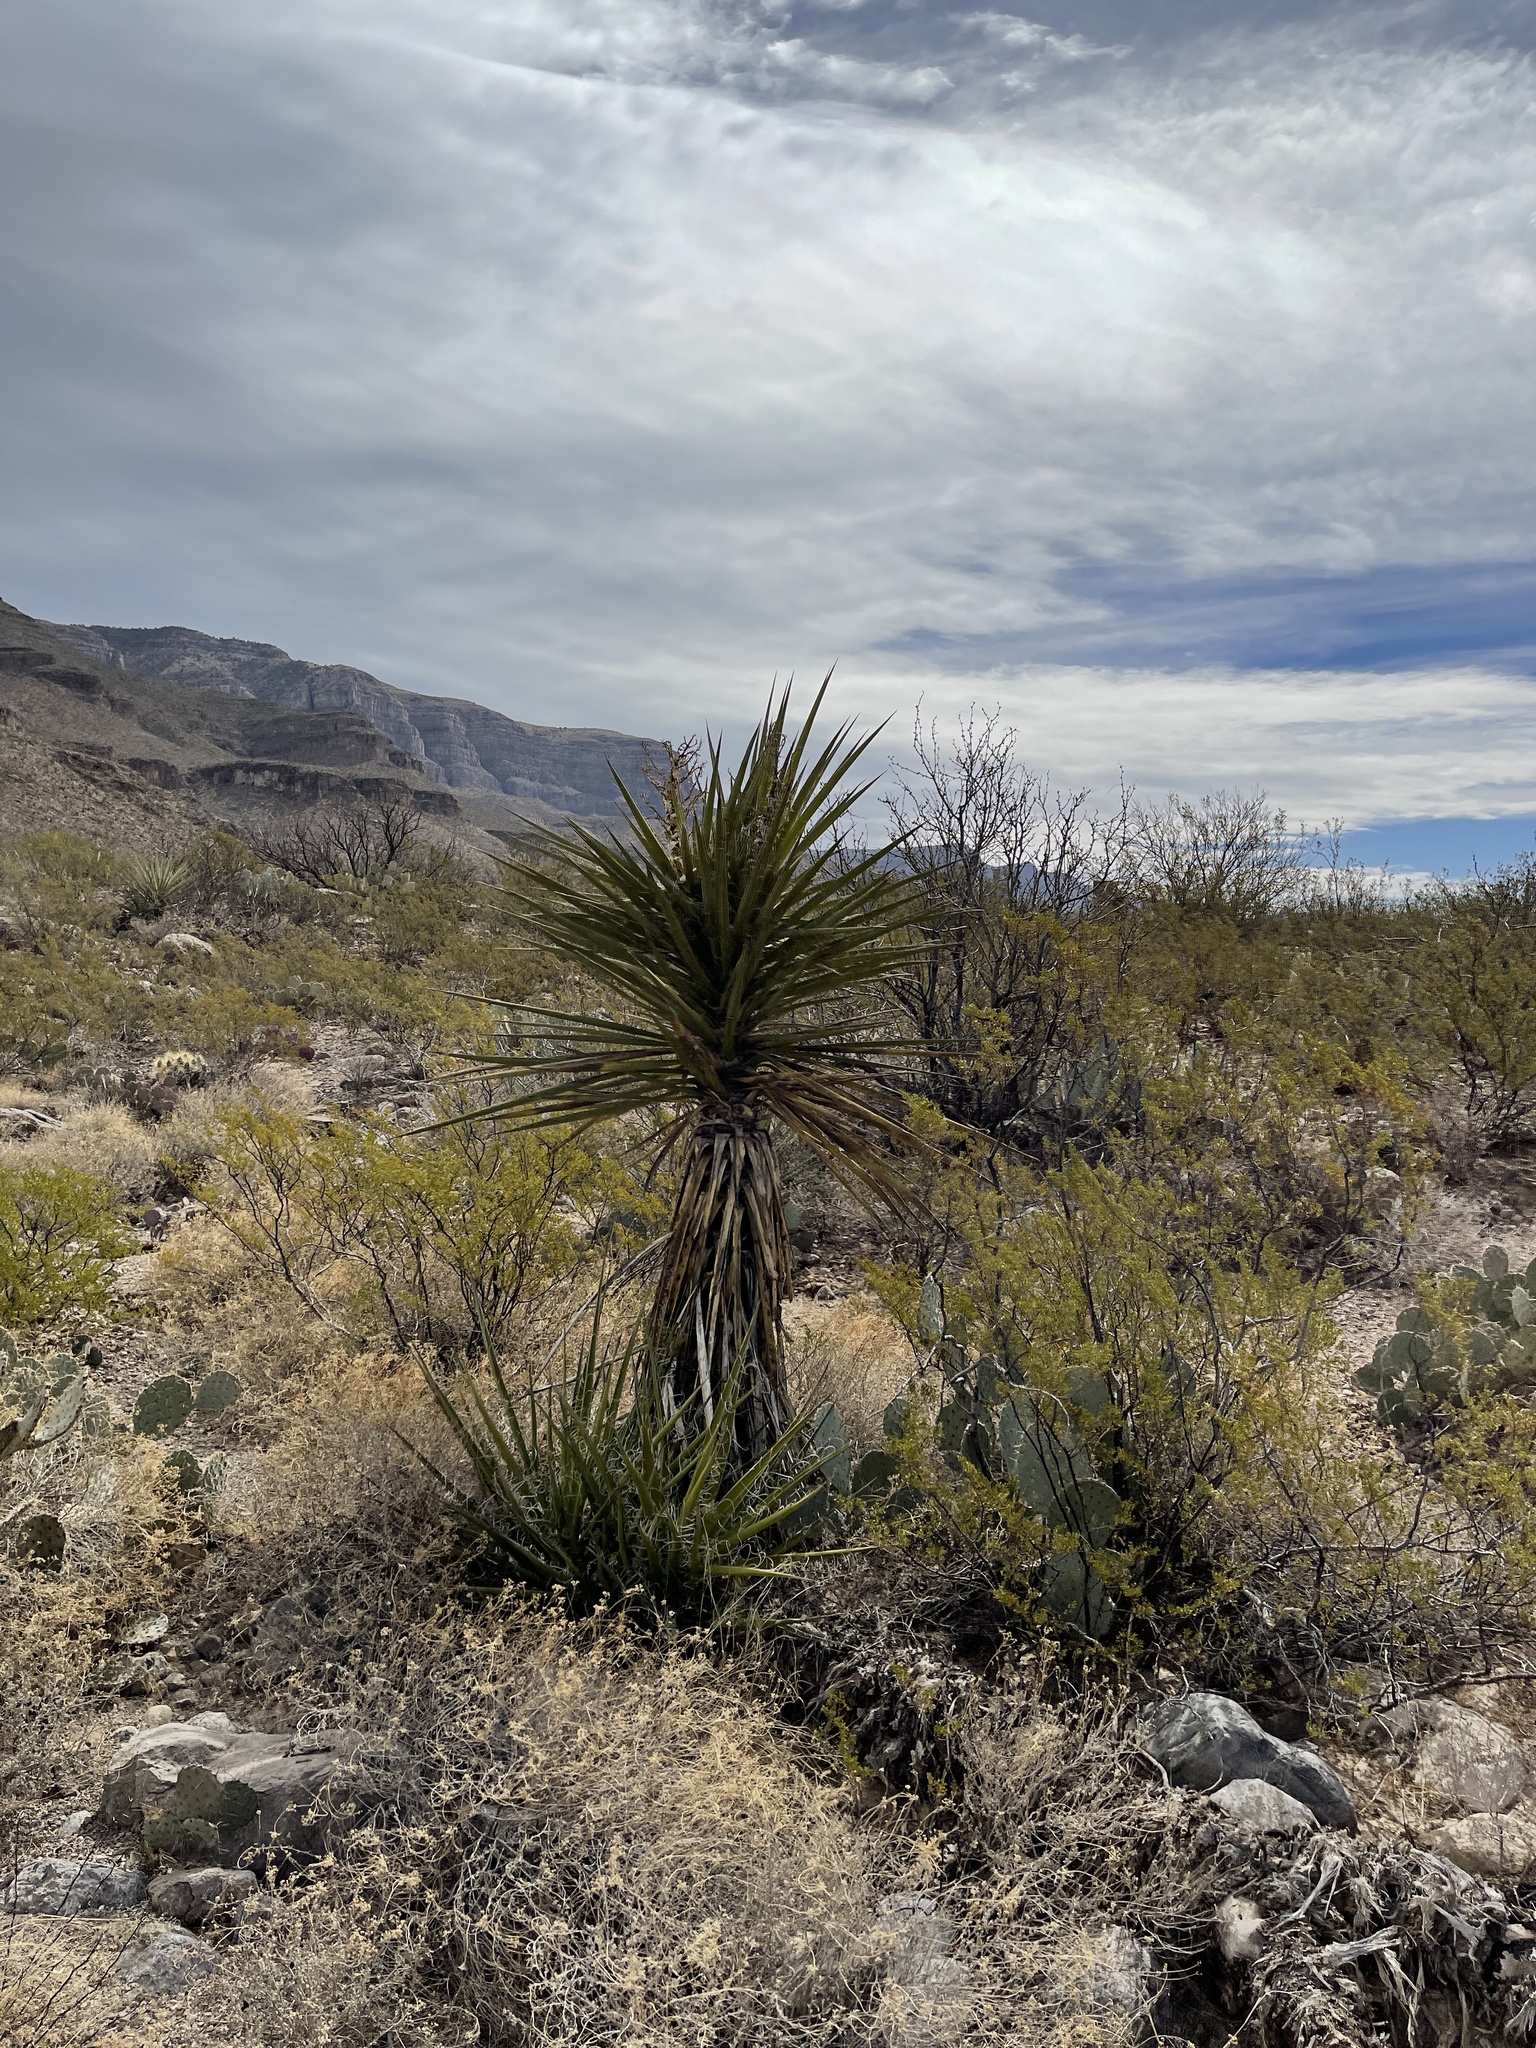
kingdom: Plantae
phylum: Tracheophyta
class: Liliopsida
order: Asparagales
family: Asparagaceae
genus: Yucca
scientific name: Yucca treculiana
